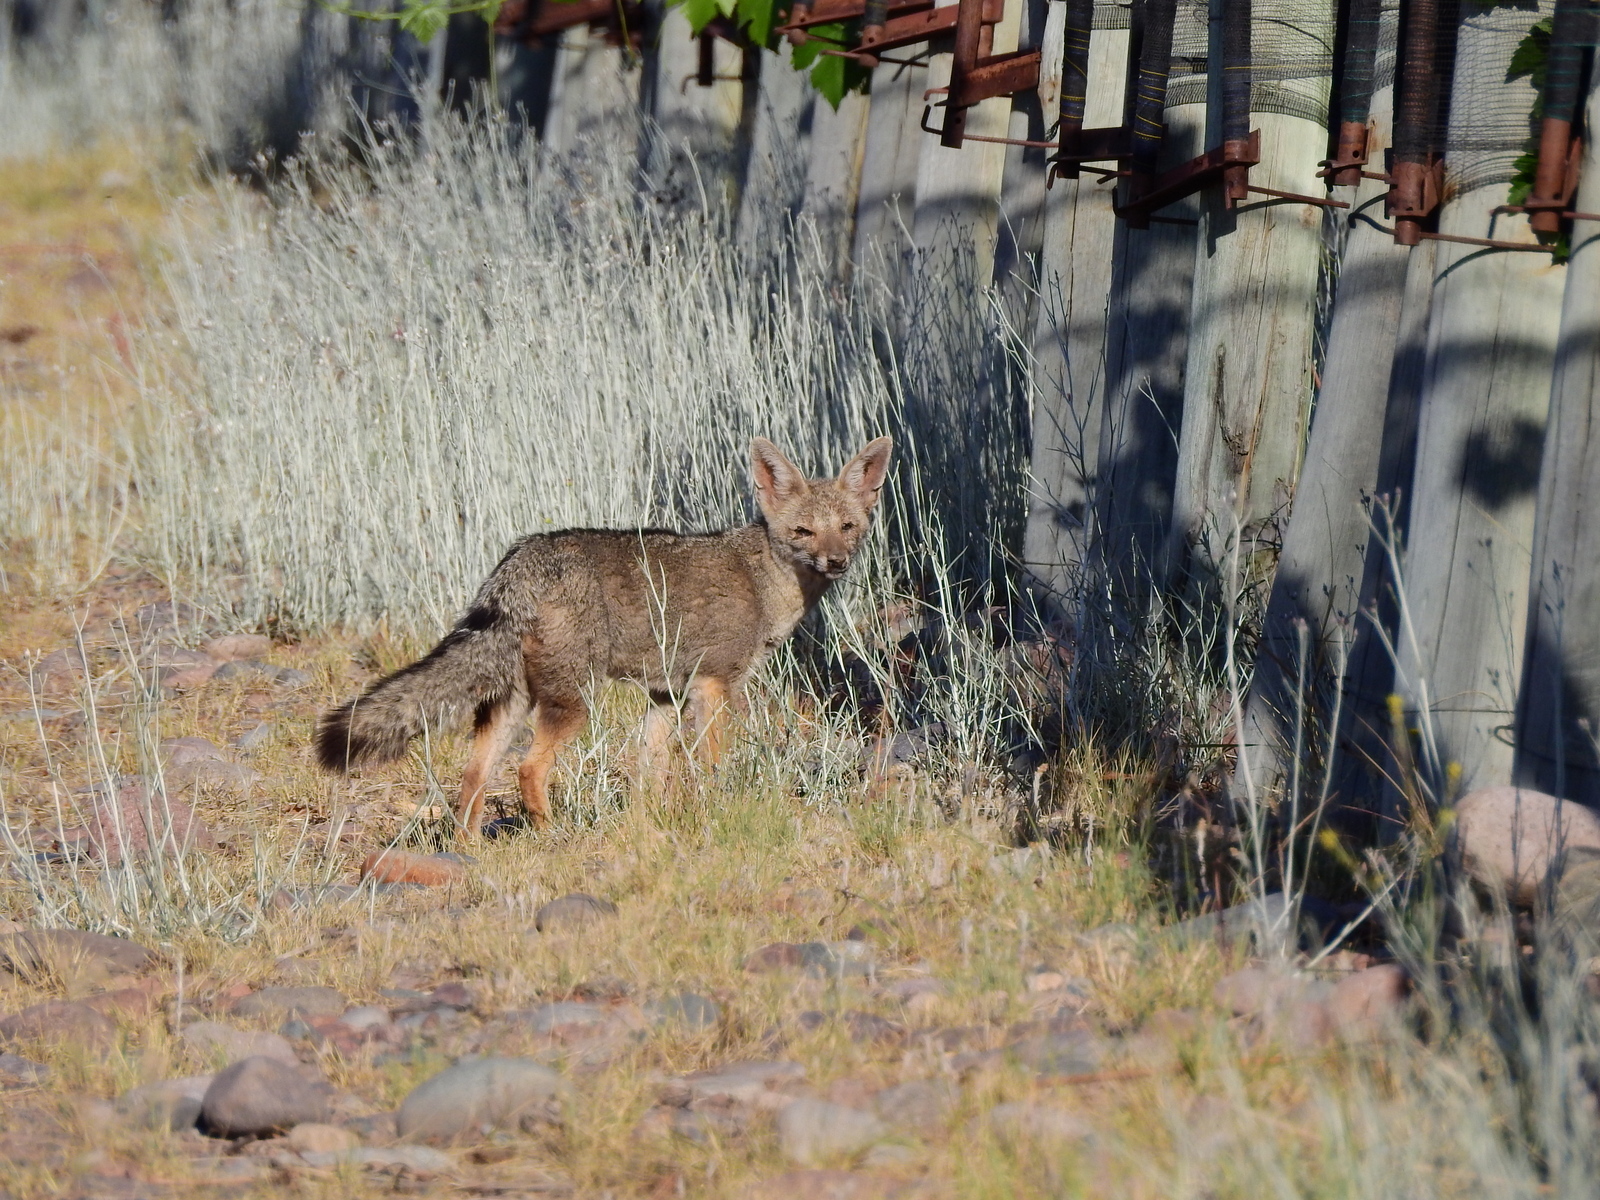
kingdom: Animalia
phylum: Chordata
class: Mammalia
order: Carnivora
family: Canidae
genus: Lycalopex
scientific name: Lycalopex gymnocercus
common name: Pampas fox
